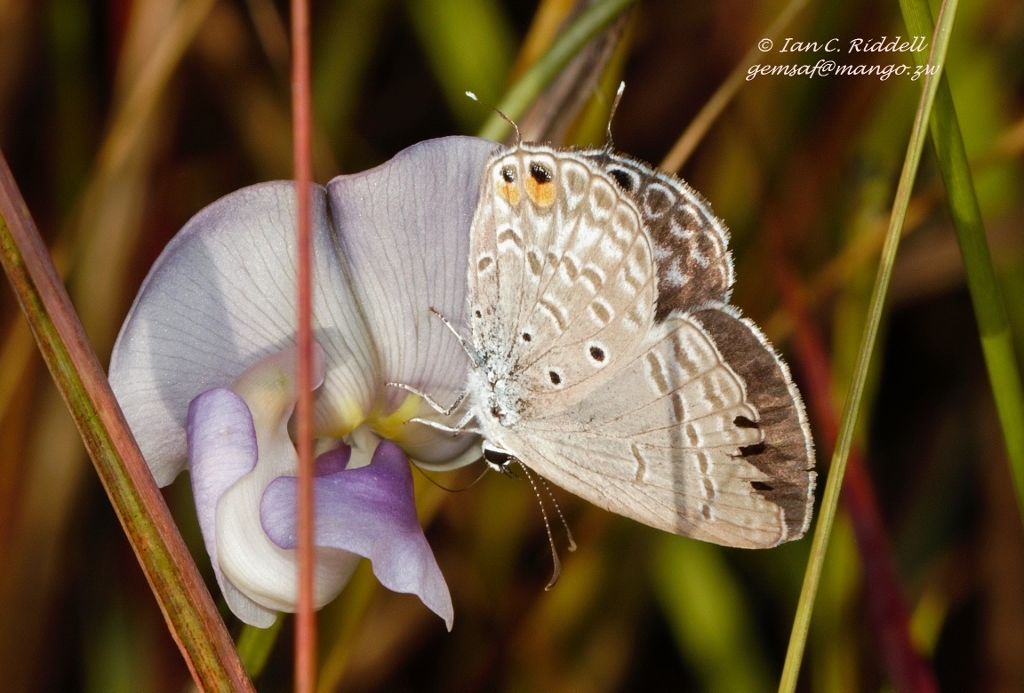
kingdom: Animalia
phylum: Arthropoda
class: Insecta
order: Lepidoptera
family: Lycaenidae
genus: Euchrysops
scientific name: Euchrysops osiris
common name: African blue
